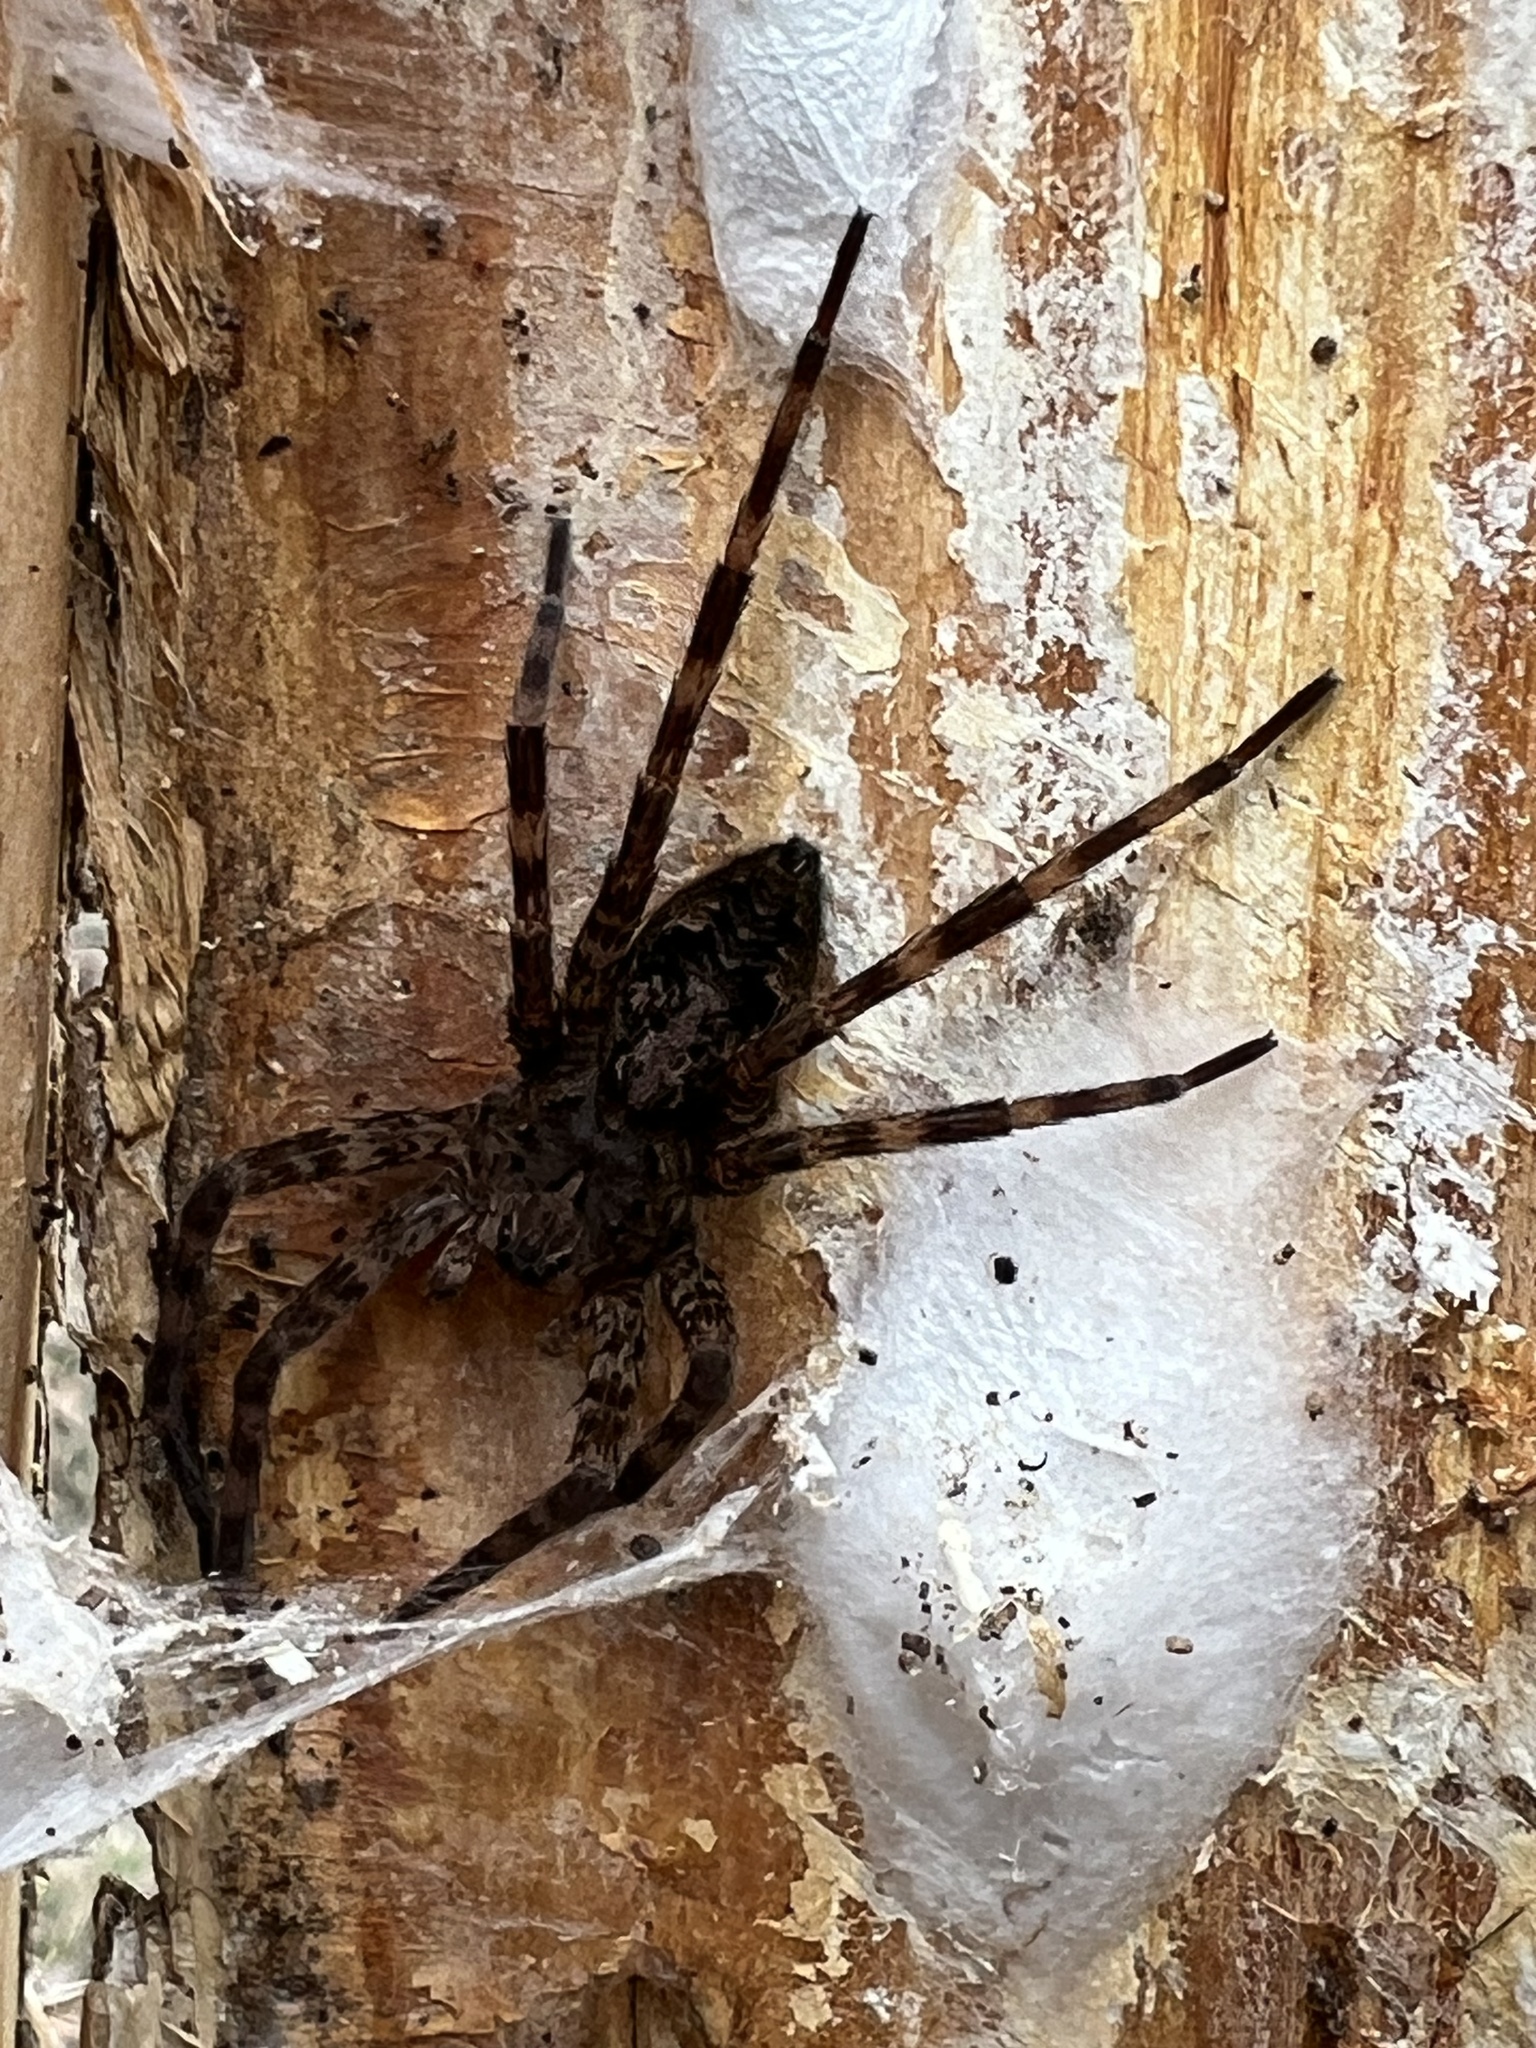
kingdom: Animalia
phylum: Arthropoda
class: Arachnida
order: Araneae
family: Pisauridae
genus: Dolomedes
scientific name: Dolomedes tenebrosus
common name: Dark fishing spider
